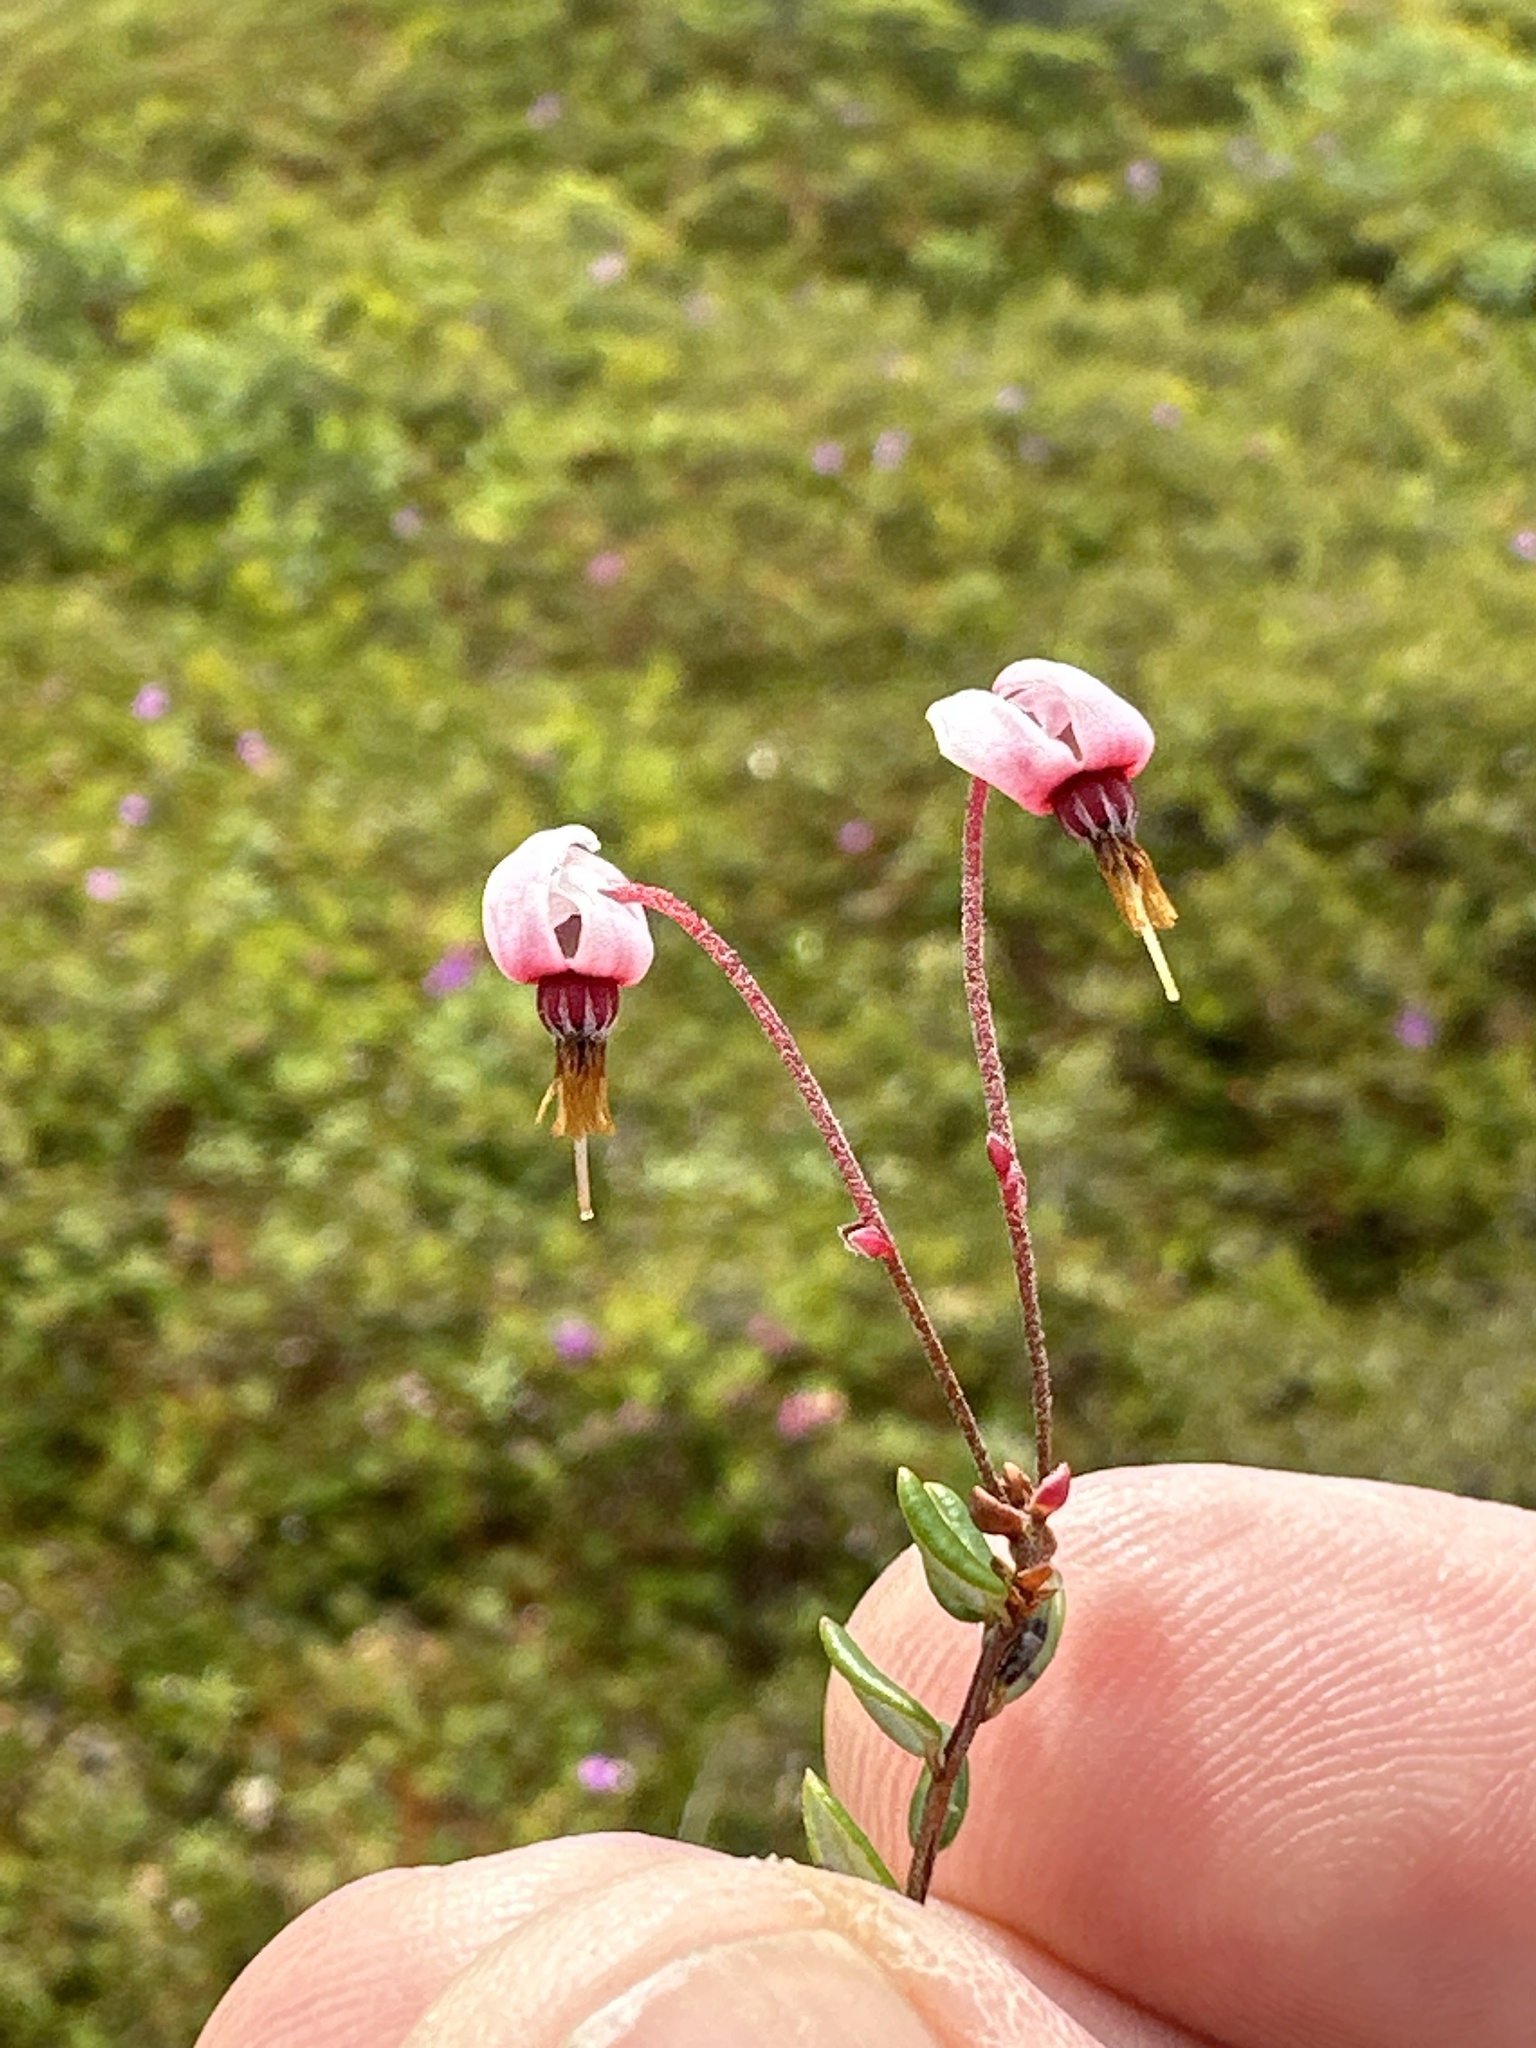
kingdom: Plantae
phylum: Tracheophyta
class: Magnoliopsida
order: Ericales
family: Ericaceae
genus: Vaccinium
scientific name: Vaccinium oxycoccos
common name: Cranberry
